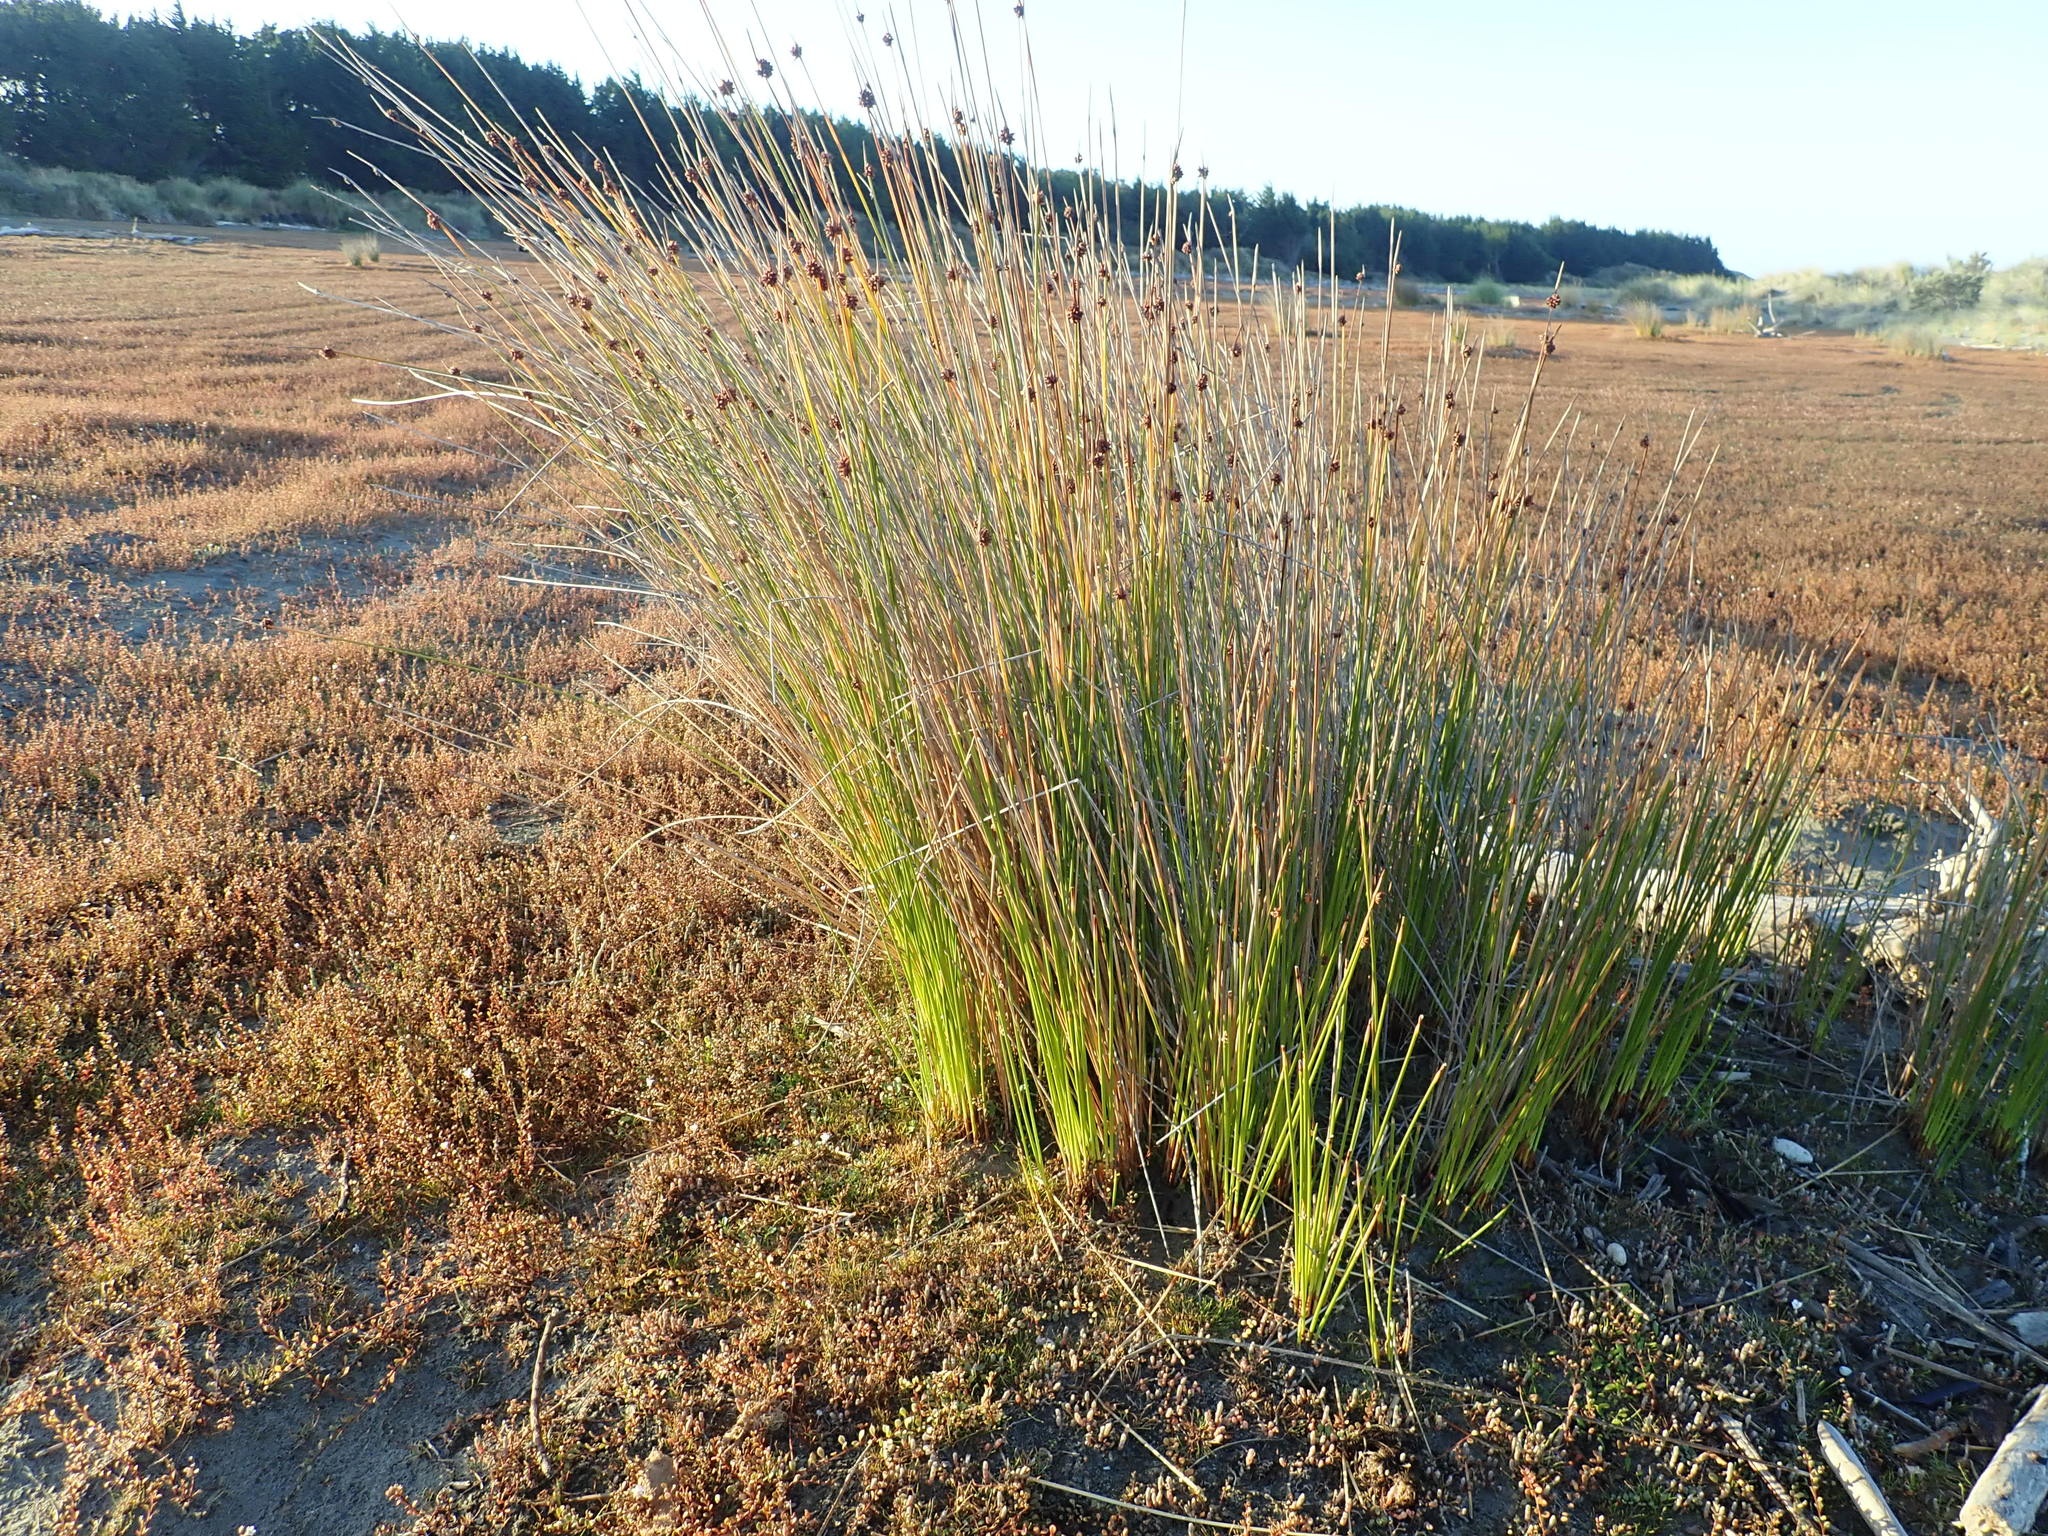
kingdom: Plantae
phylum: Tracheophyta
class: Liliopsida
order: Poales
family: Cyperaceae
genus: Ficinia
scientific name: Ficinia nodosa
